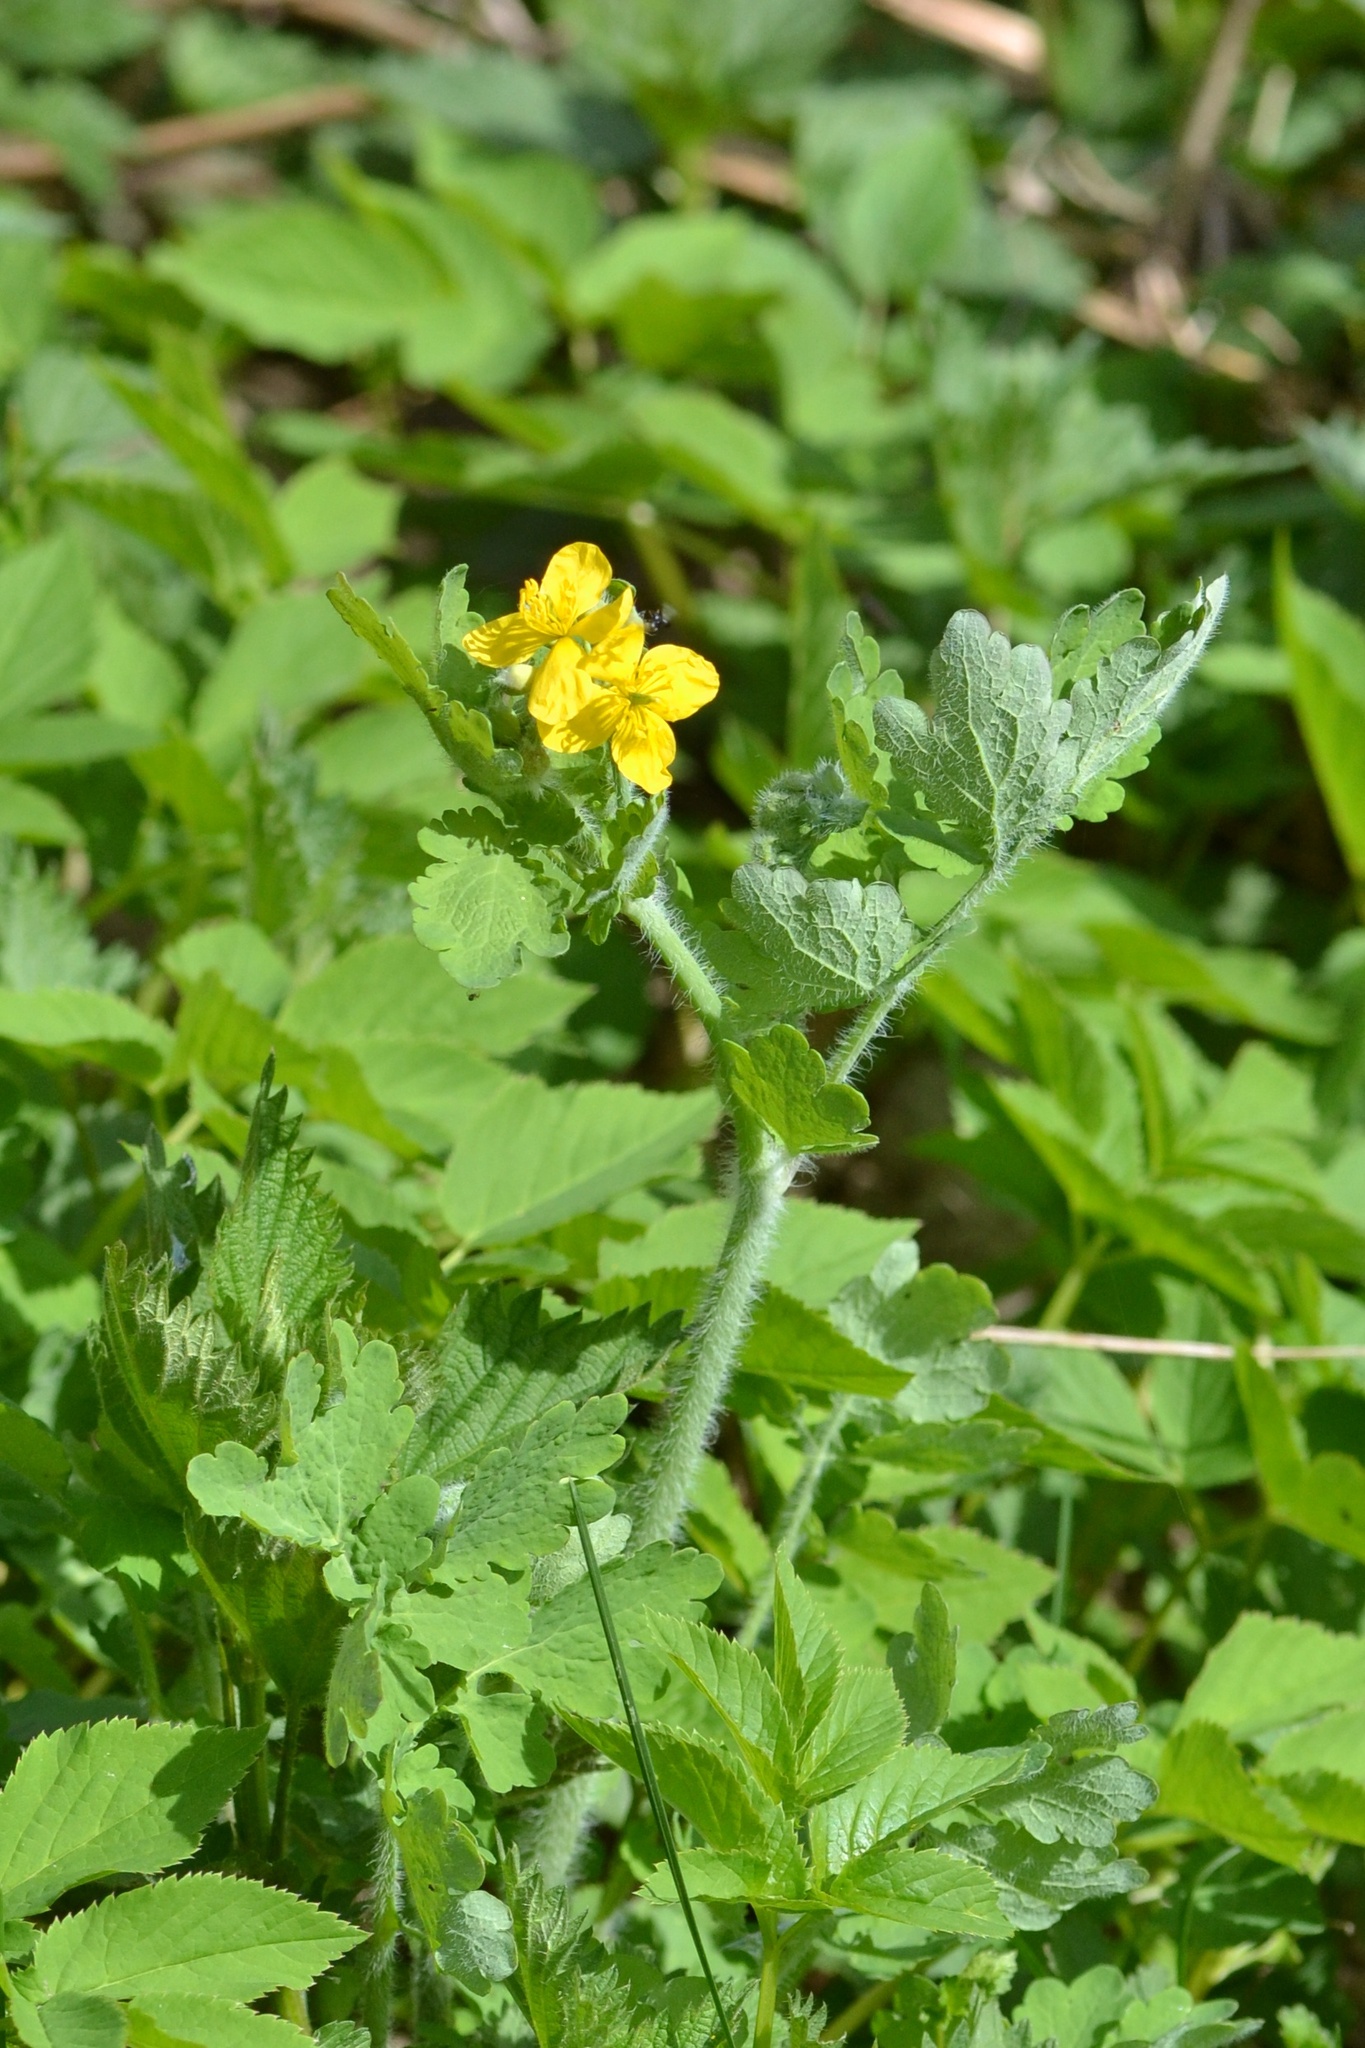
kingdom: Plantae
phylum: Tracheophyta
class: Magnoliopsida
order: Ranunculales
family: Papaveraceae
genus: Chelidonium
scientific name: Chelidonium majus
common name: Greater celandine
